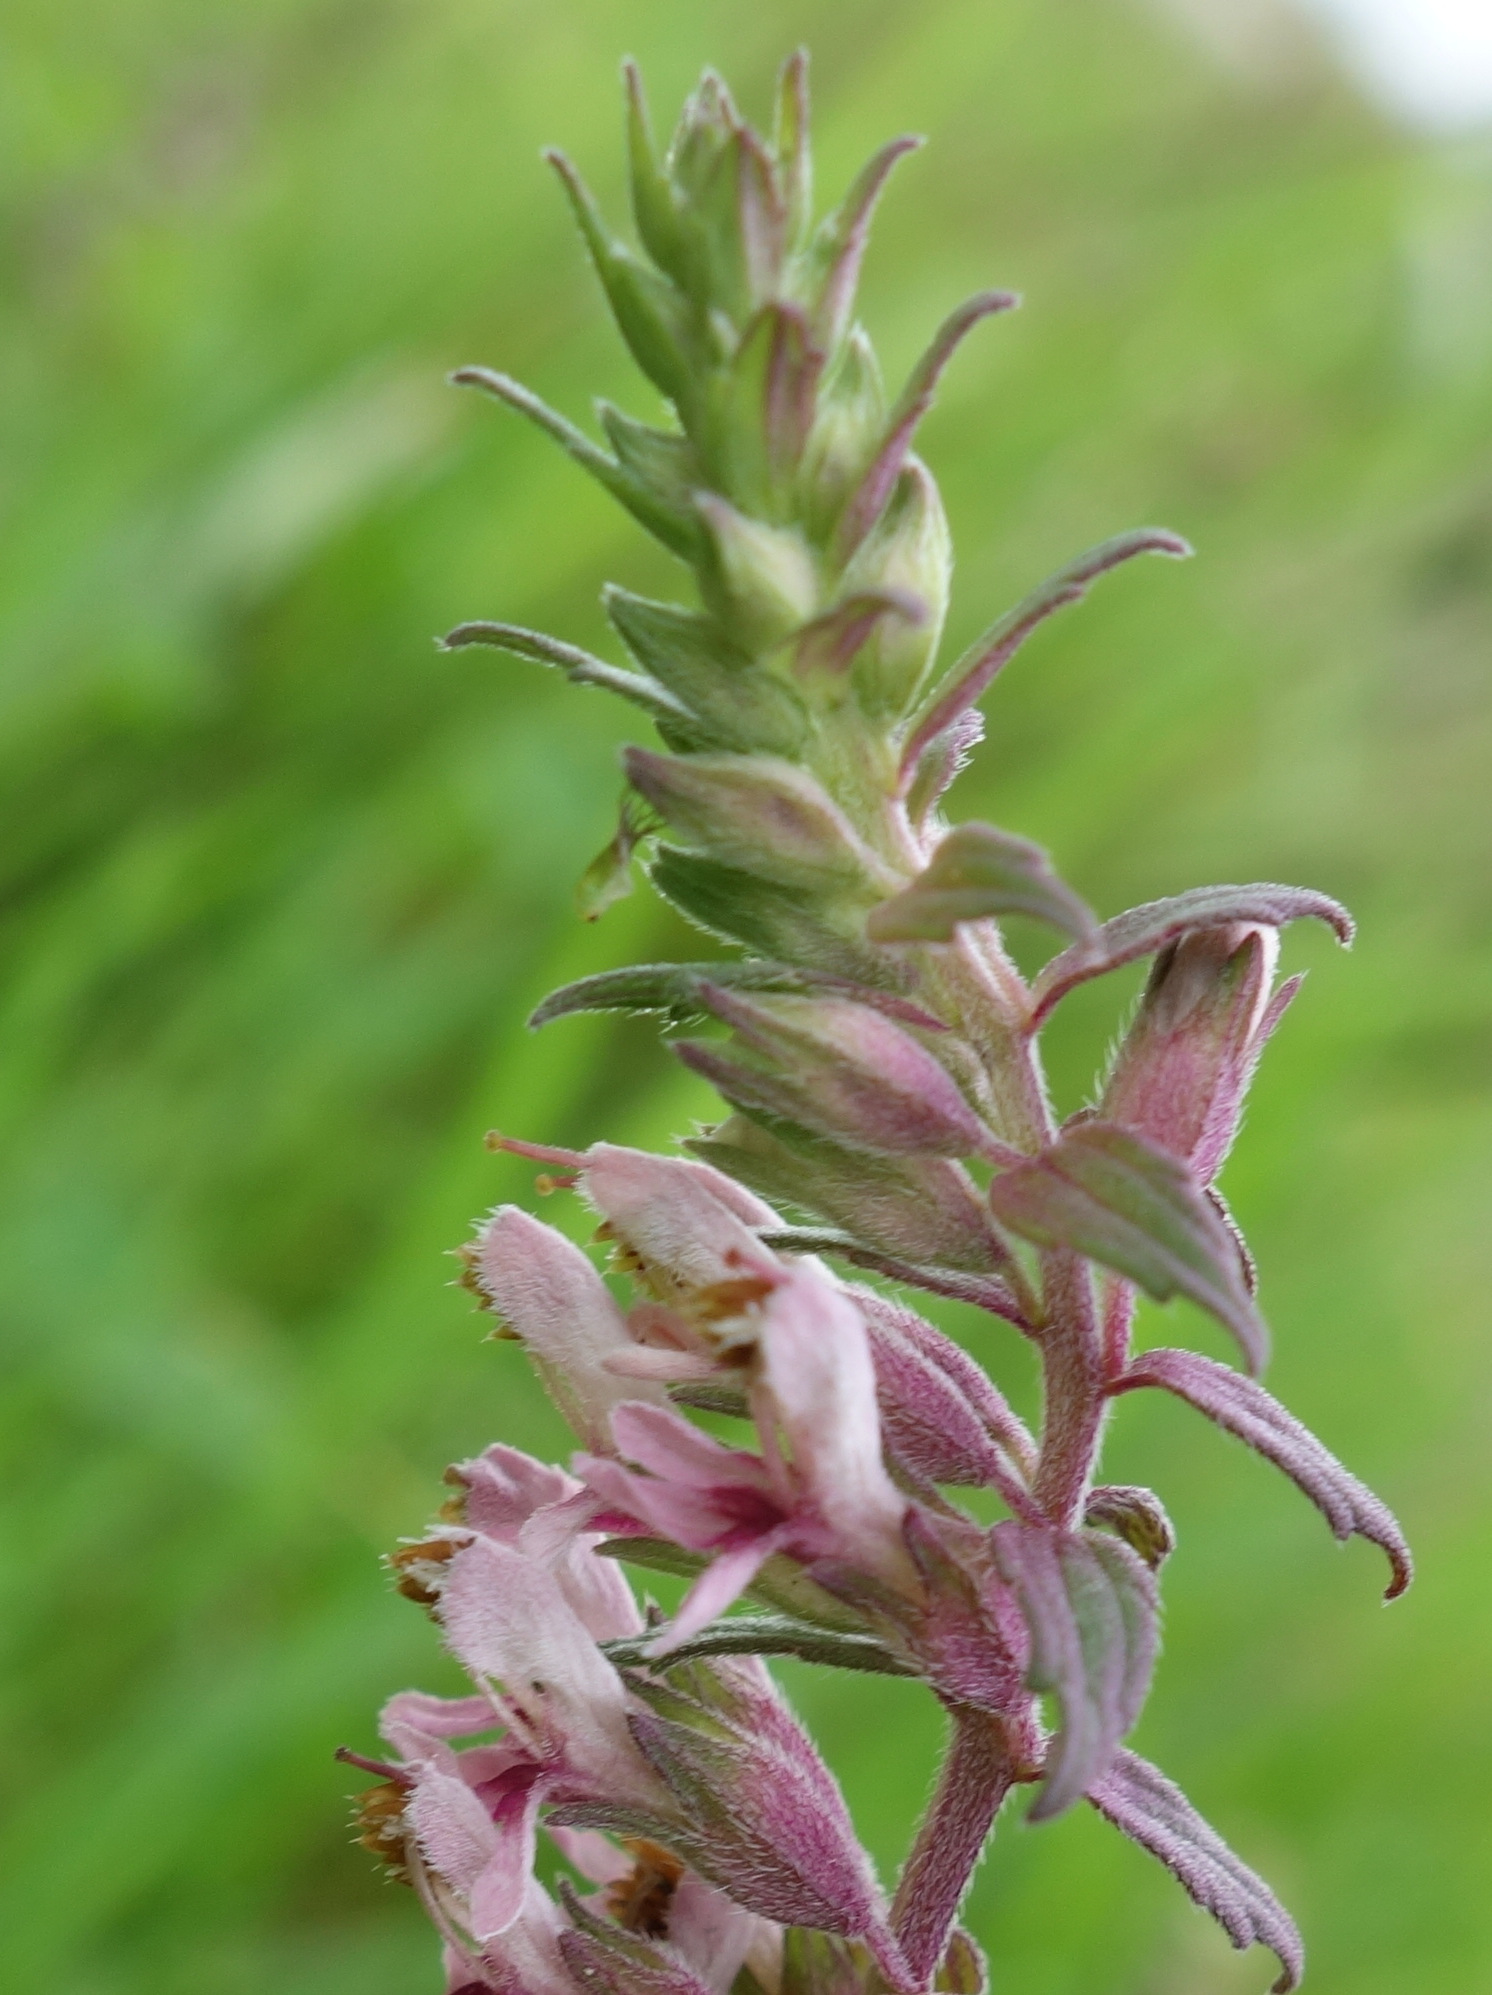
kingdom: Plantae
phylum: Tracheophyta
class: Magnoliopsida
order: Lamiales
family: Orobanchaceae
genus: Odontites
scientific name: Odontites vulgaris
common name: Broomrape
